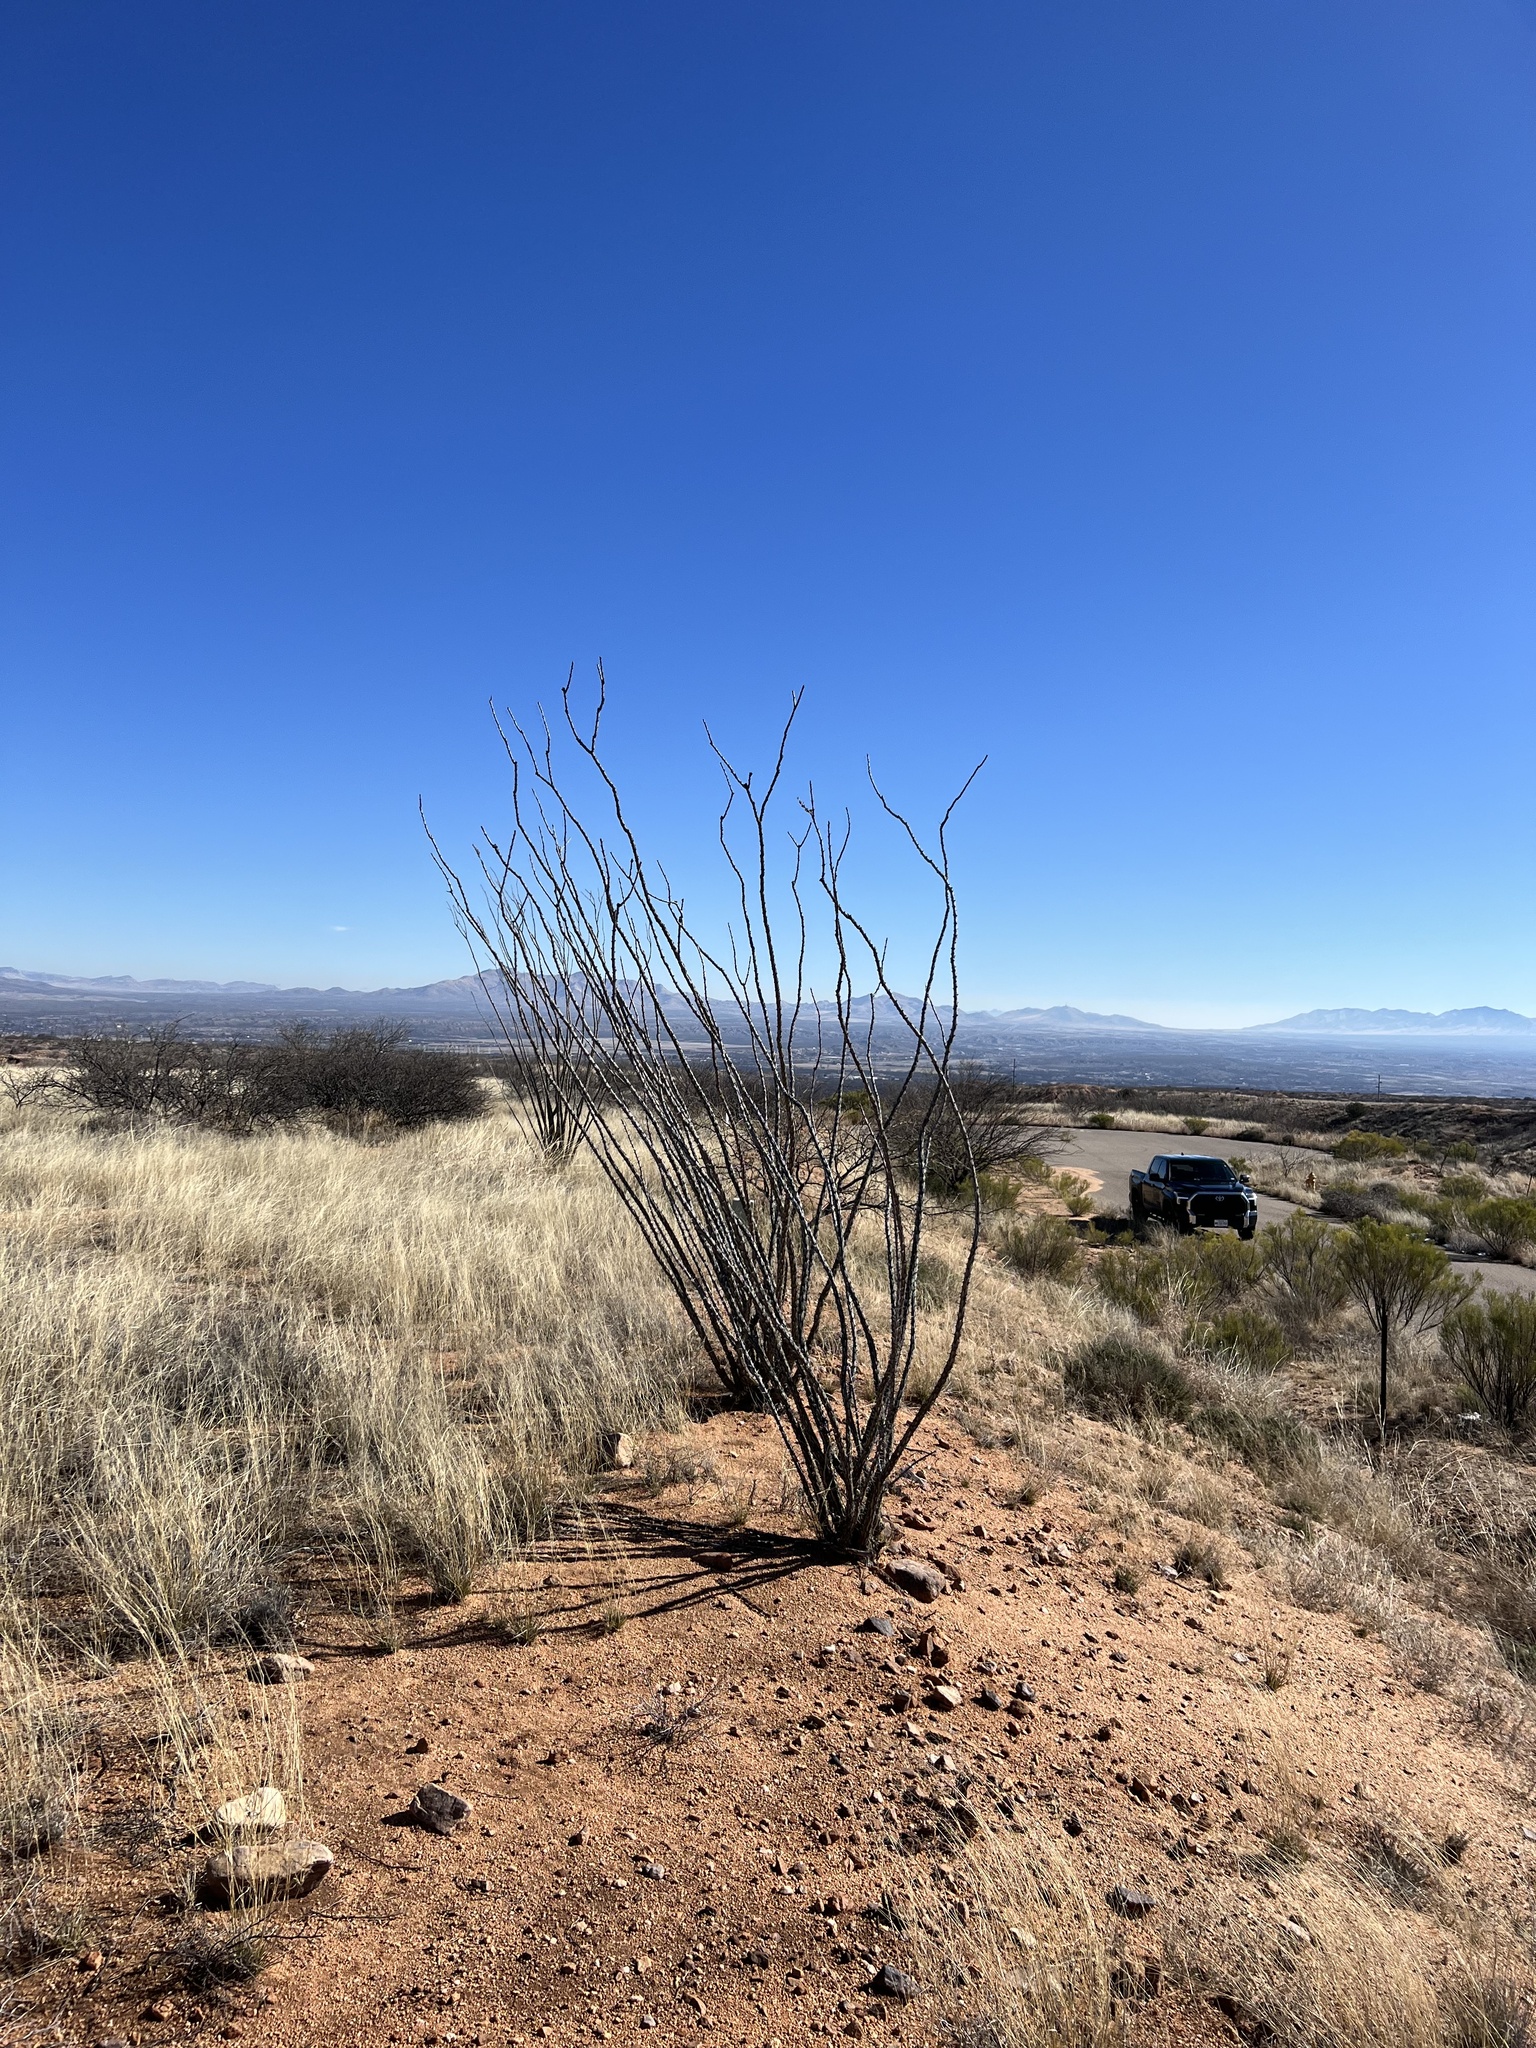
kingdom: Plantae
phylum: Tracheophyta
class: Magnoliopsida
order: Ericales
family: Fouquieriaceae
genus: Fouquieria
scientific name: Fouquieria splendens
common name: Vine-cactus
